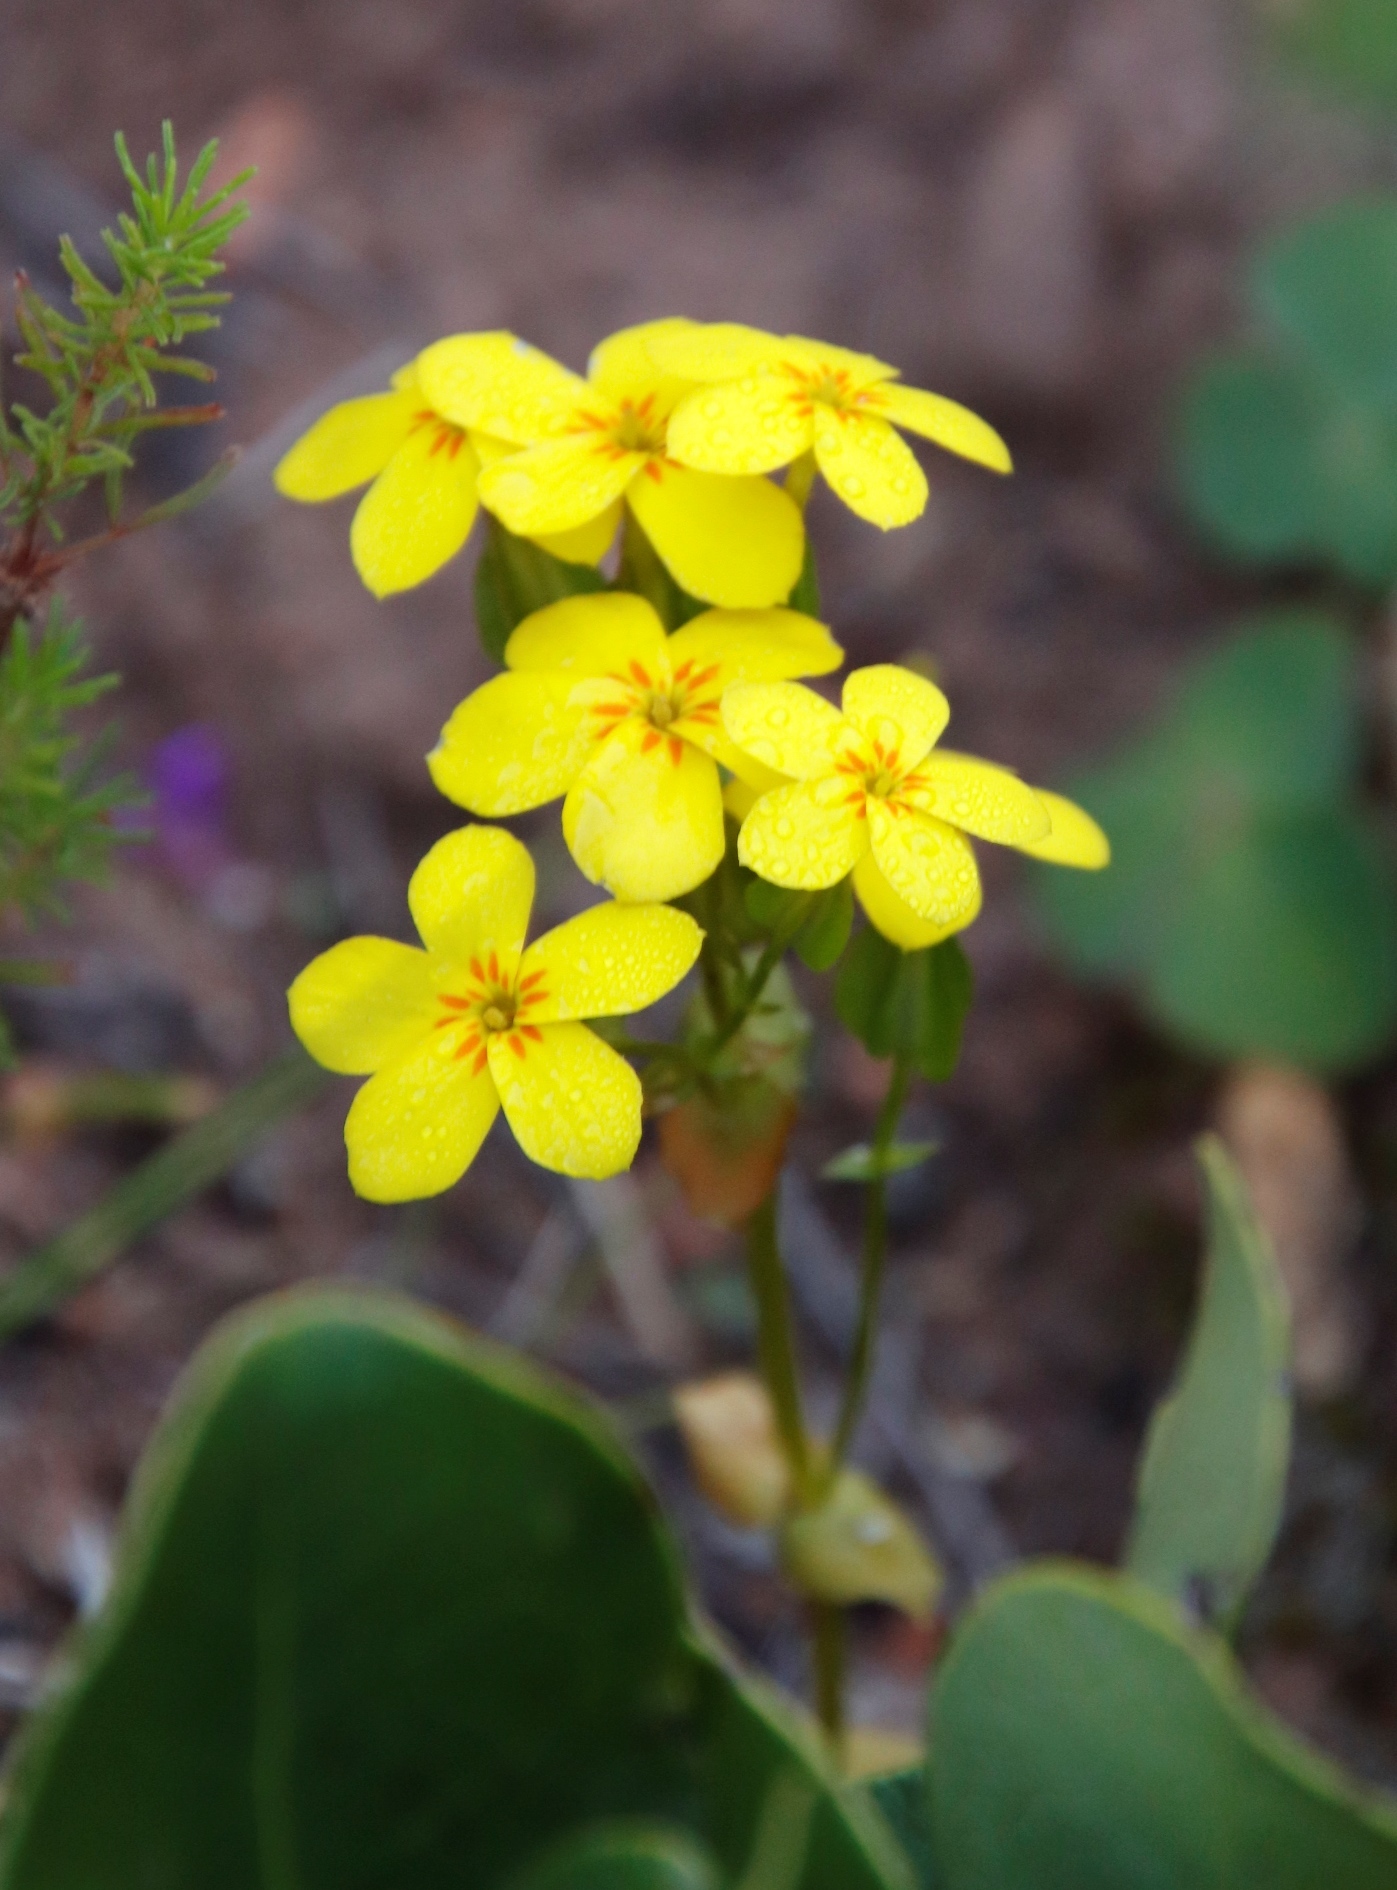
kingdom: Plantae
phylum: Tracheophyta
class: Magnoliopsida
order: Gentianales
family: Gentianaceae
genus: Sebaea
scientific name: Sebaea exacoides
